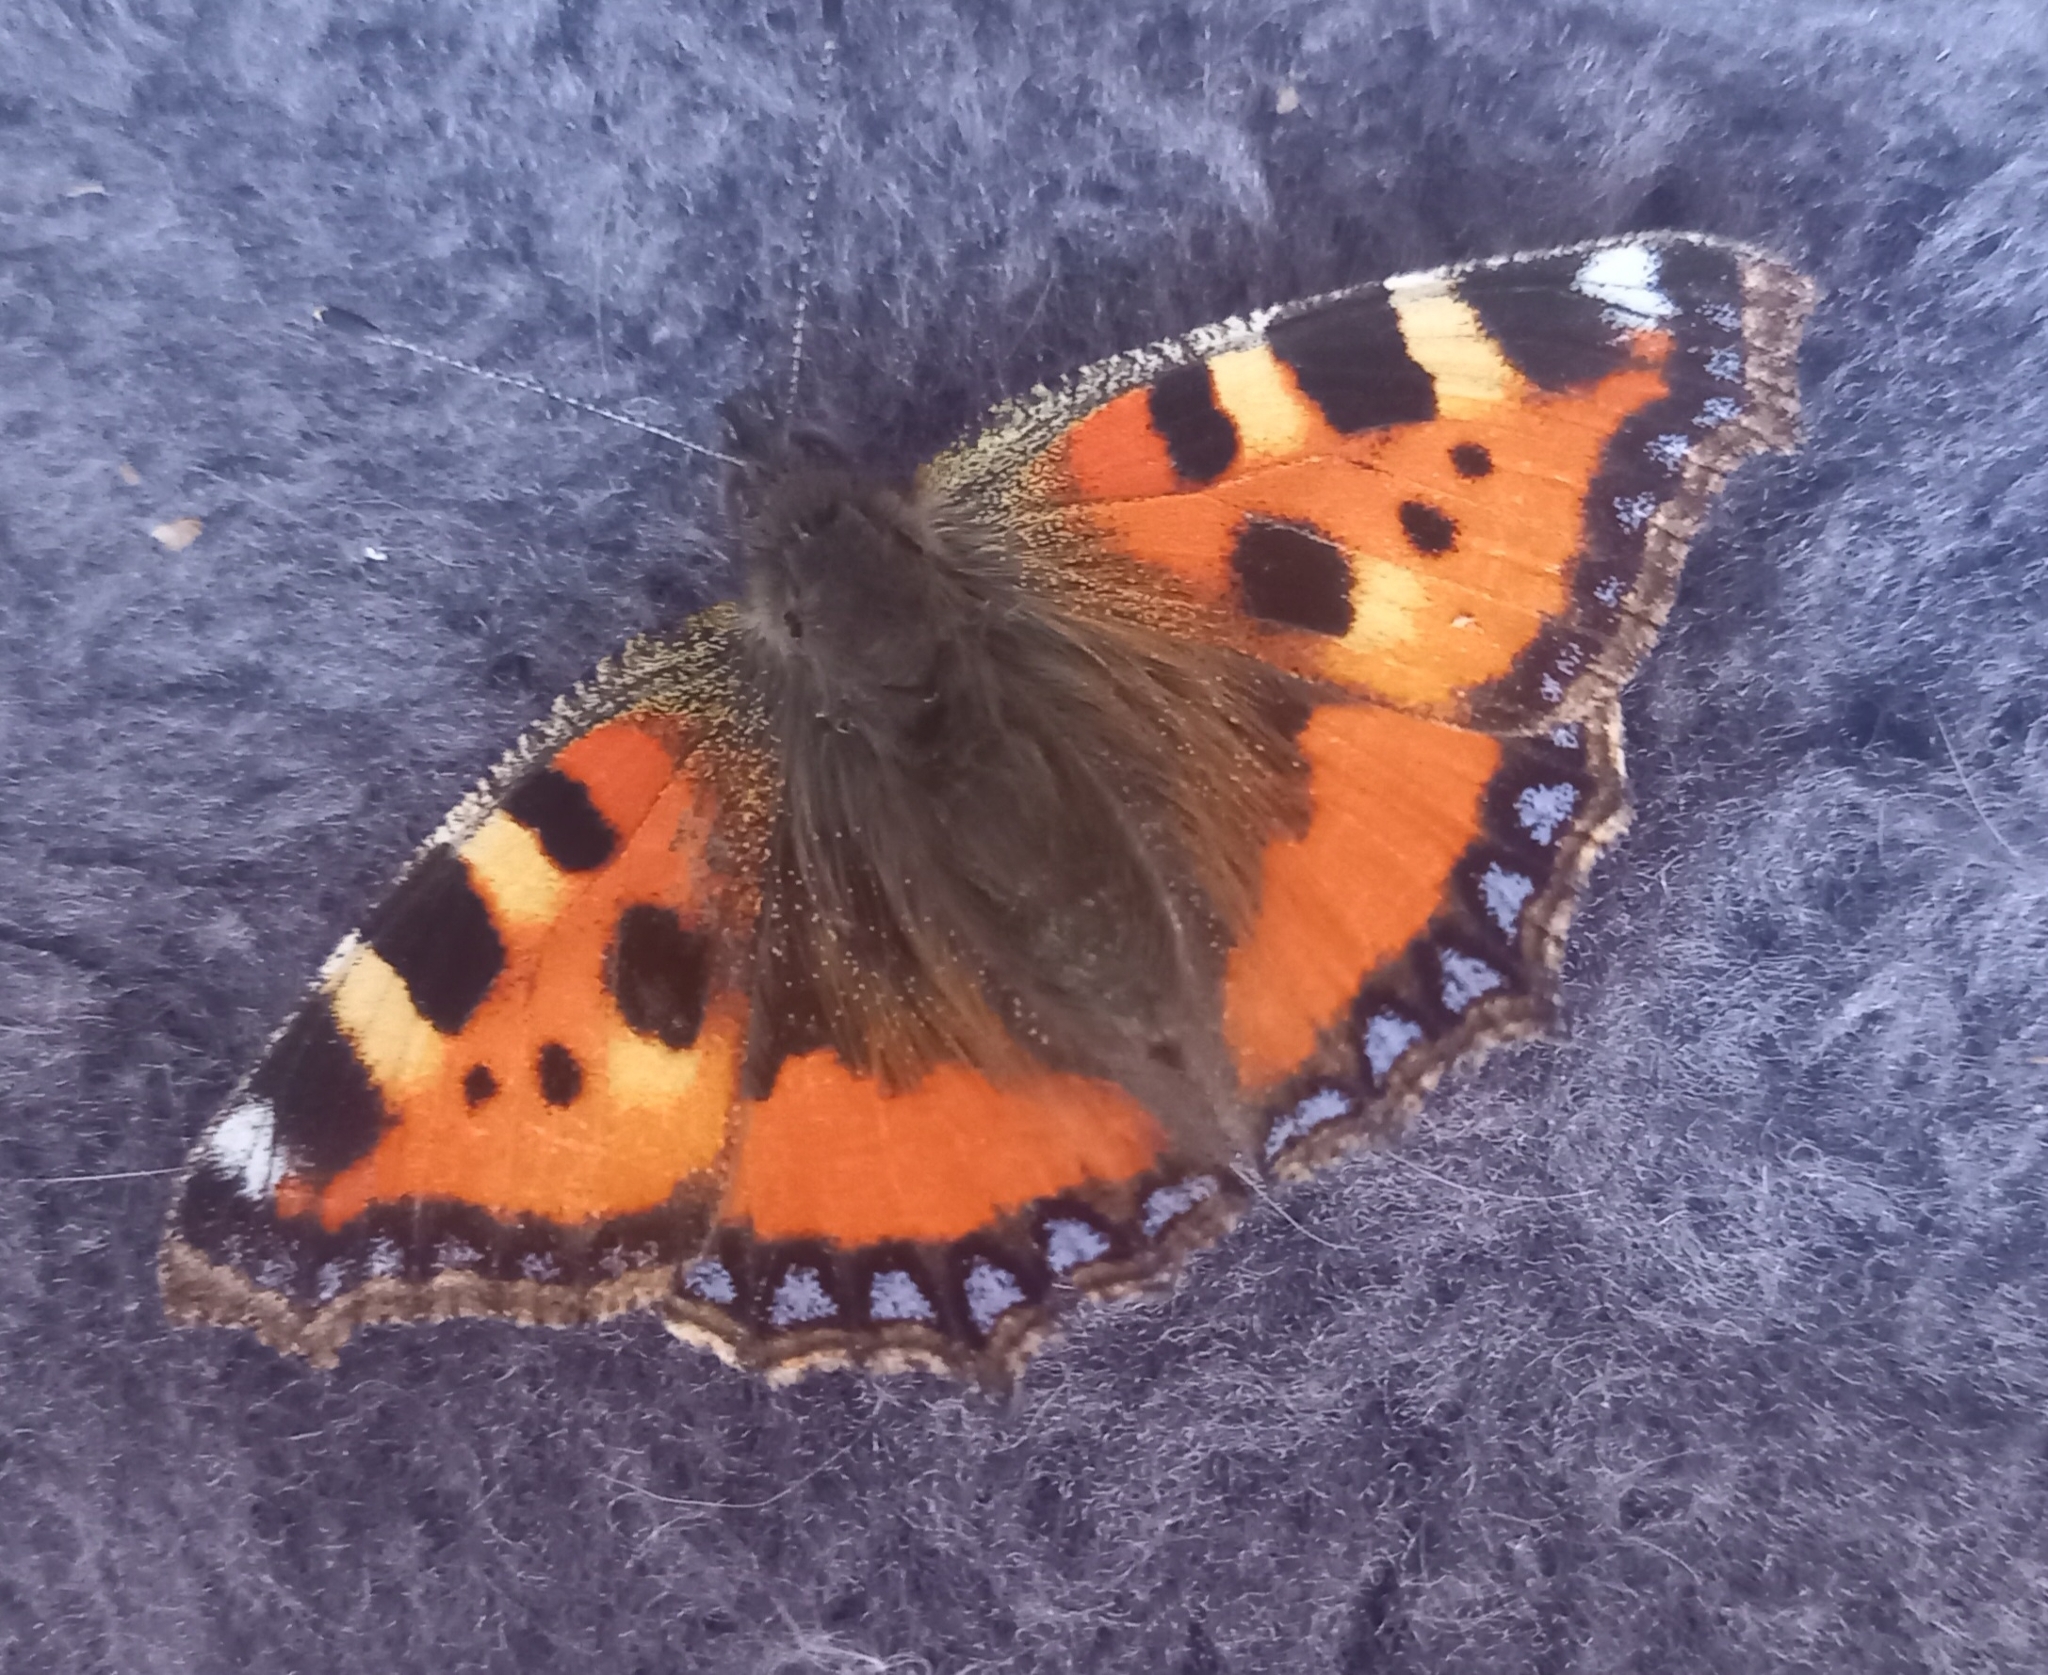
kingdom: Animalia
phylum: Arthropoda
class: Insecta
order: Lepidoptera
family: Nymphalidae
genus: Aglais
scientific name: Aglais urticae
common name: Small tortoiseshell
